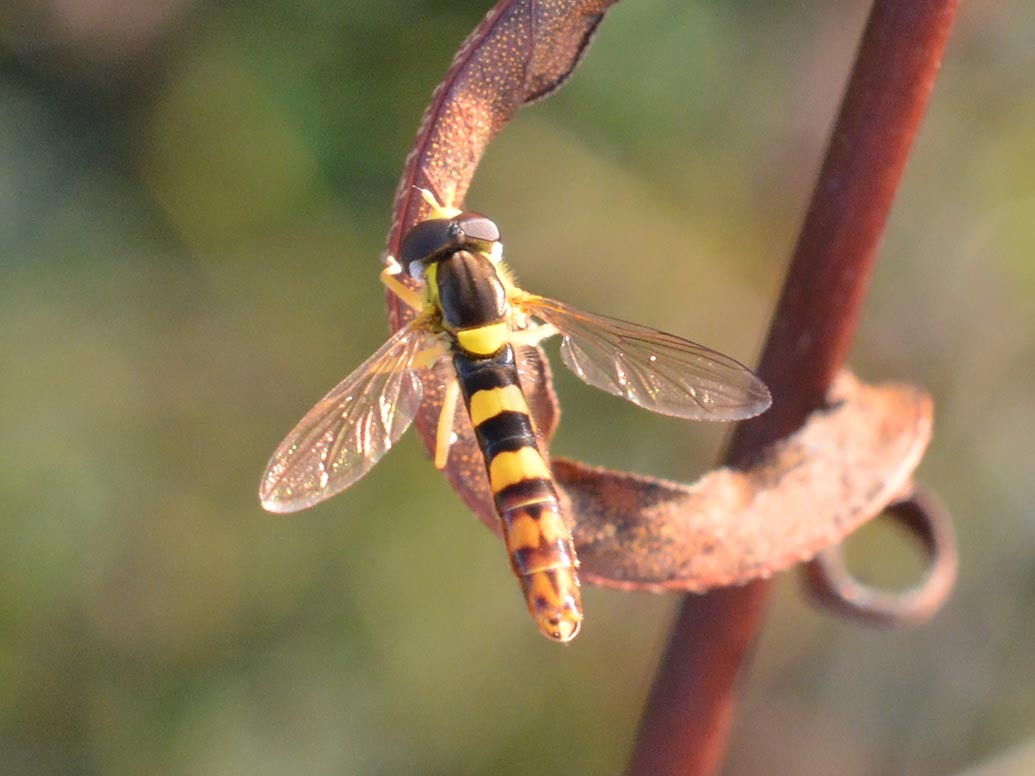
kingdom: Animalia
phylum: Arthropoda
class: Insecta
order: Diptera
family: Syrphidae
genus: Sphaerophoria
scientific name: Sphaerophoria scripta
